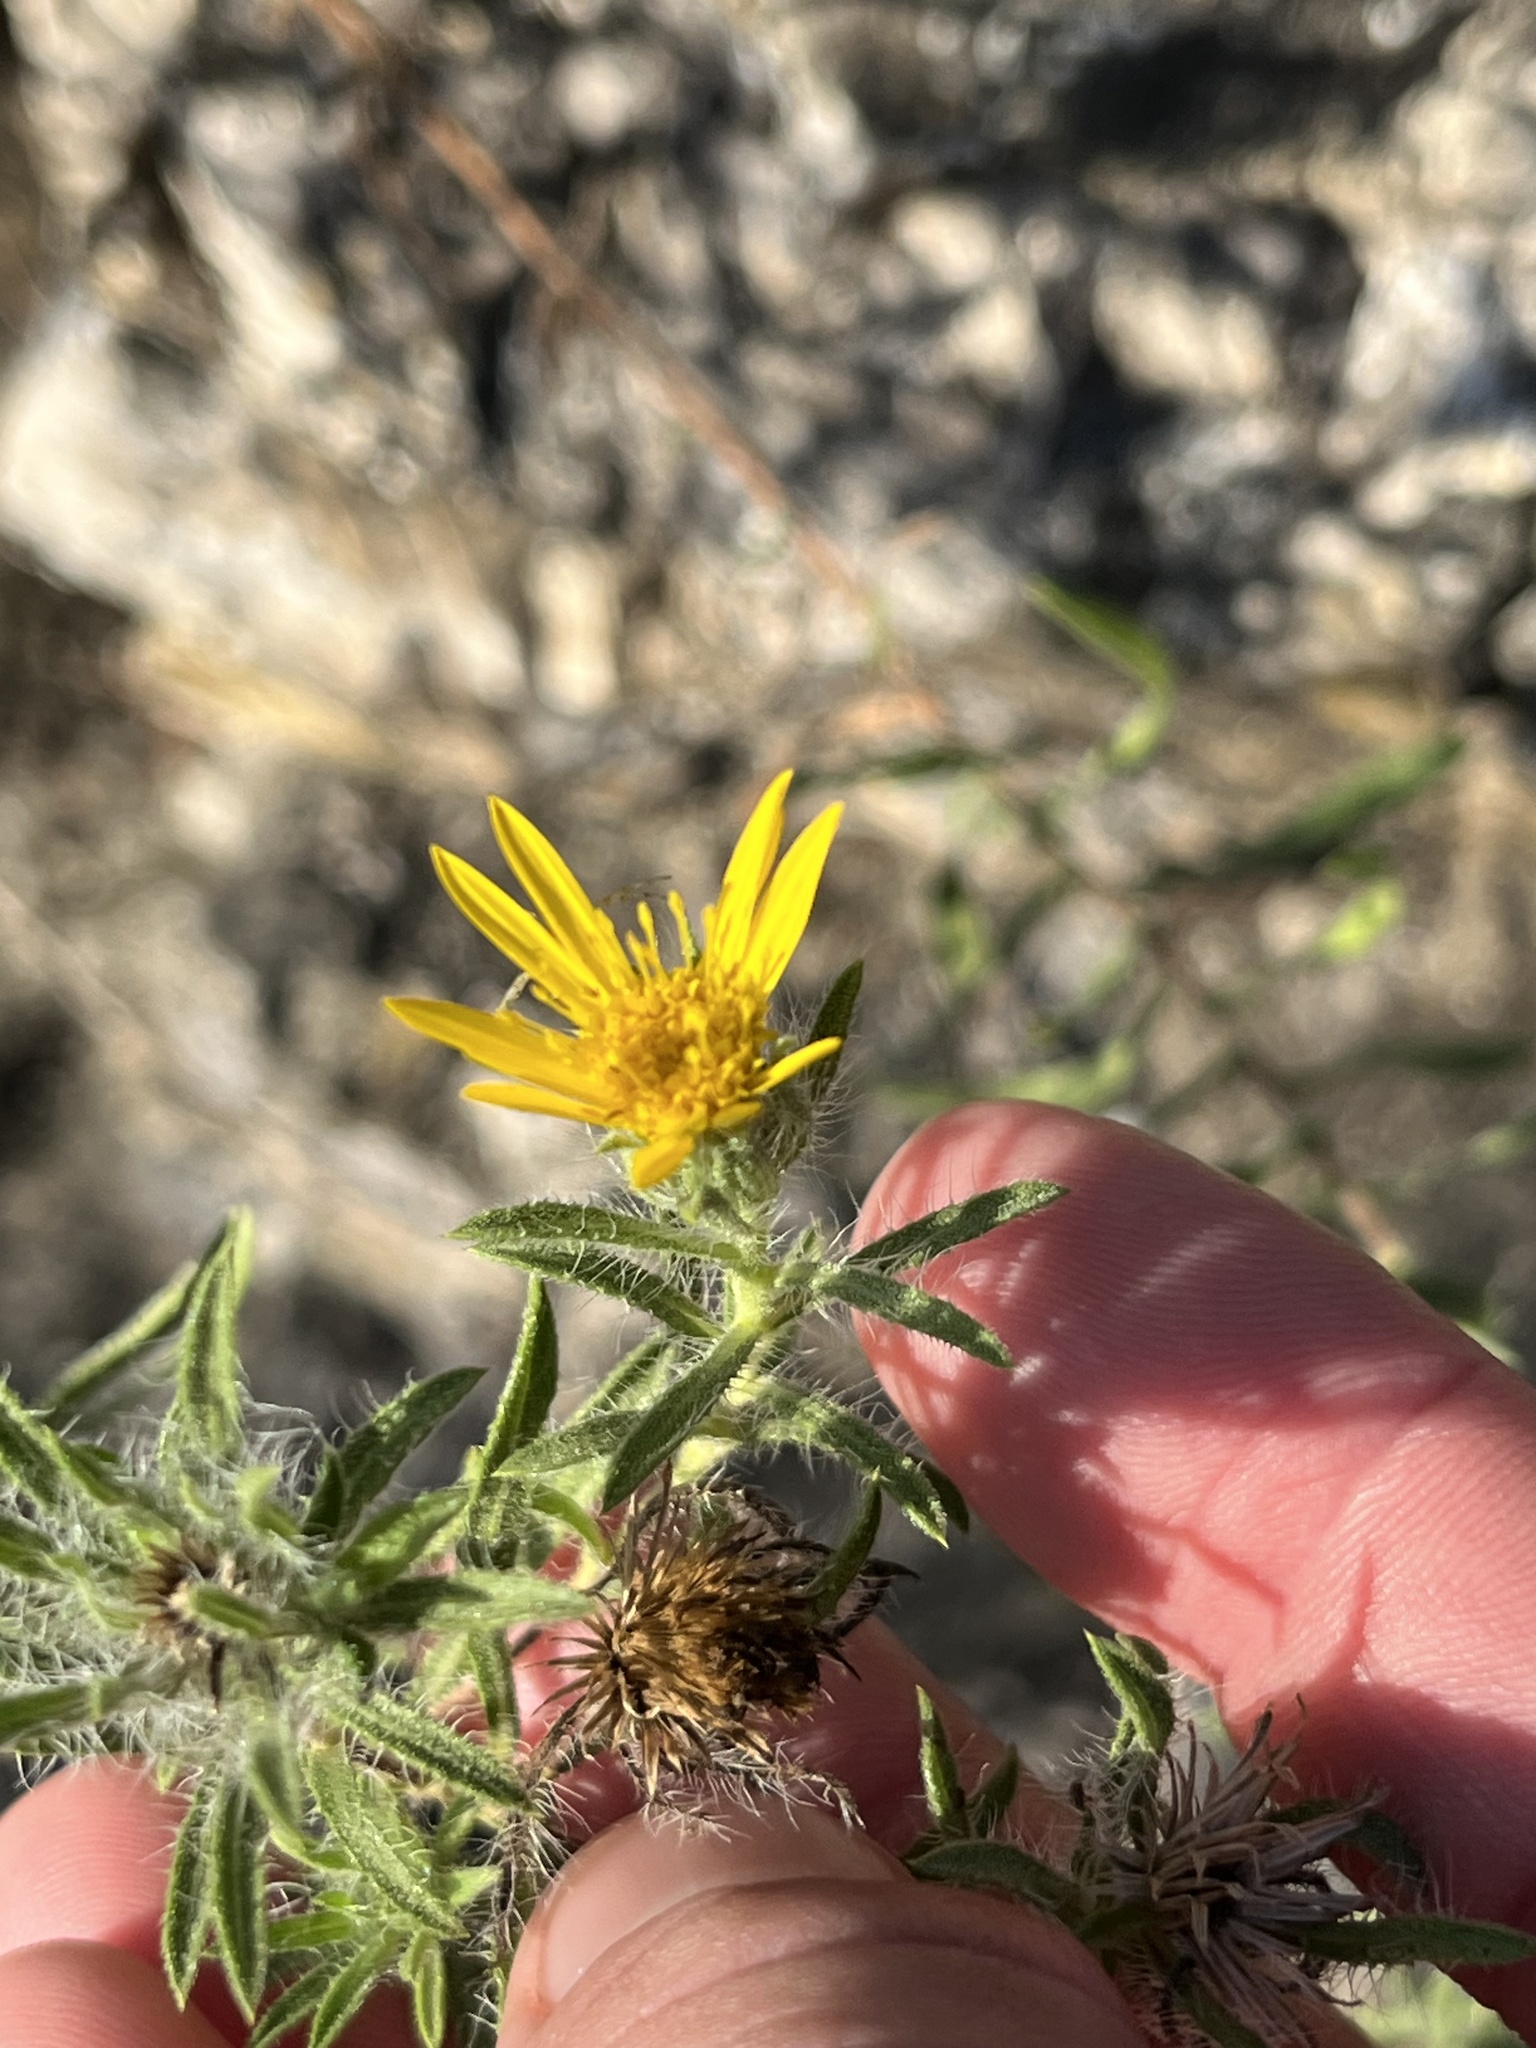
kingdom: Plantae
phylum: Tracheophyta
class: Magnoliopsida
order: Asterales
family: Asteraceae
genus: Heterotheca
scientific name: Heterotheca stenophylla
